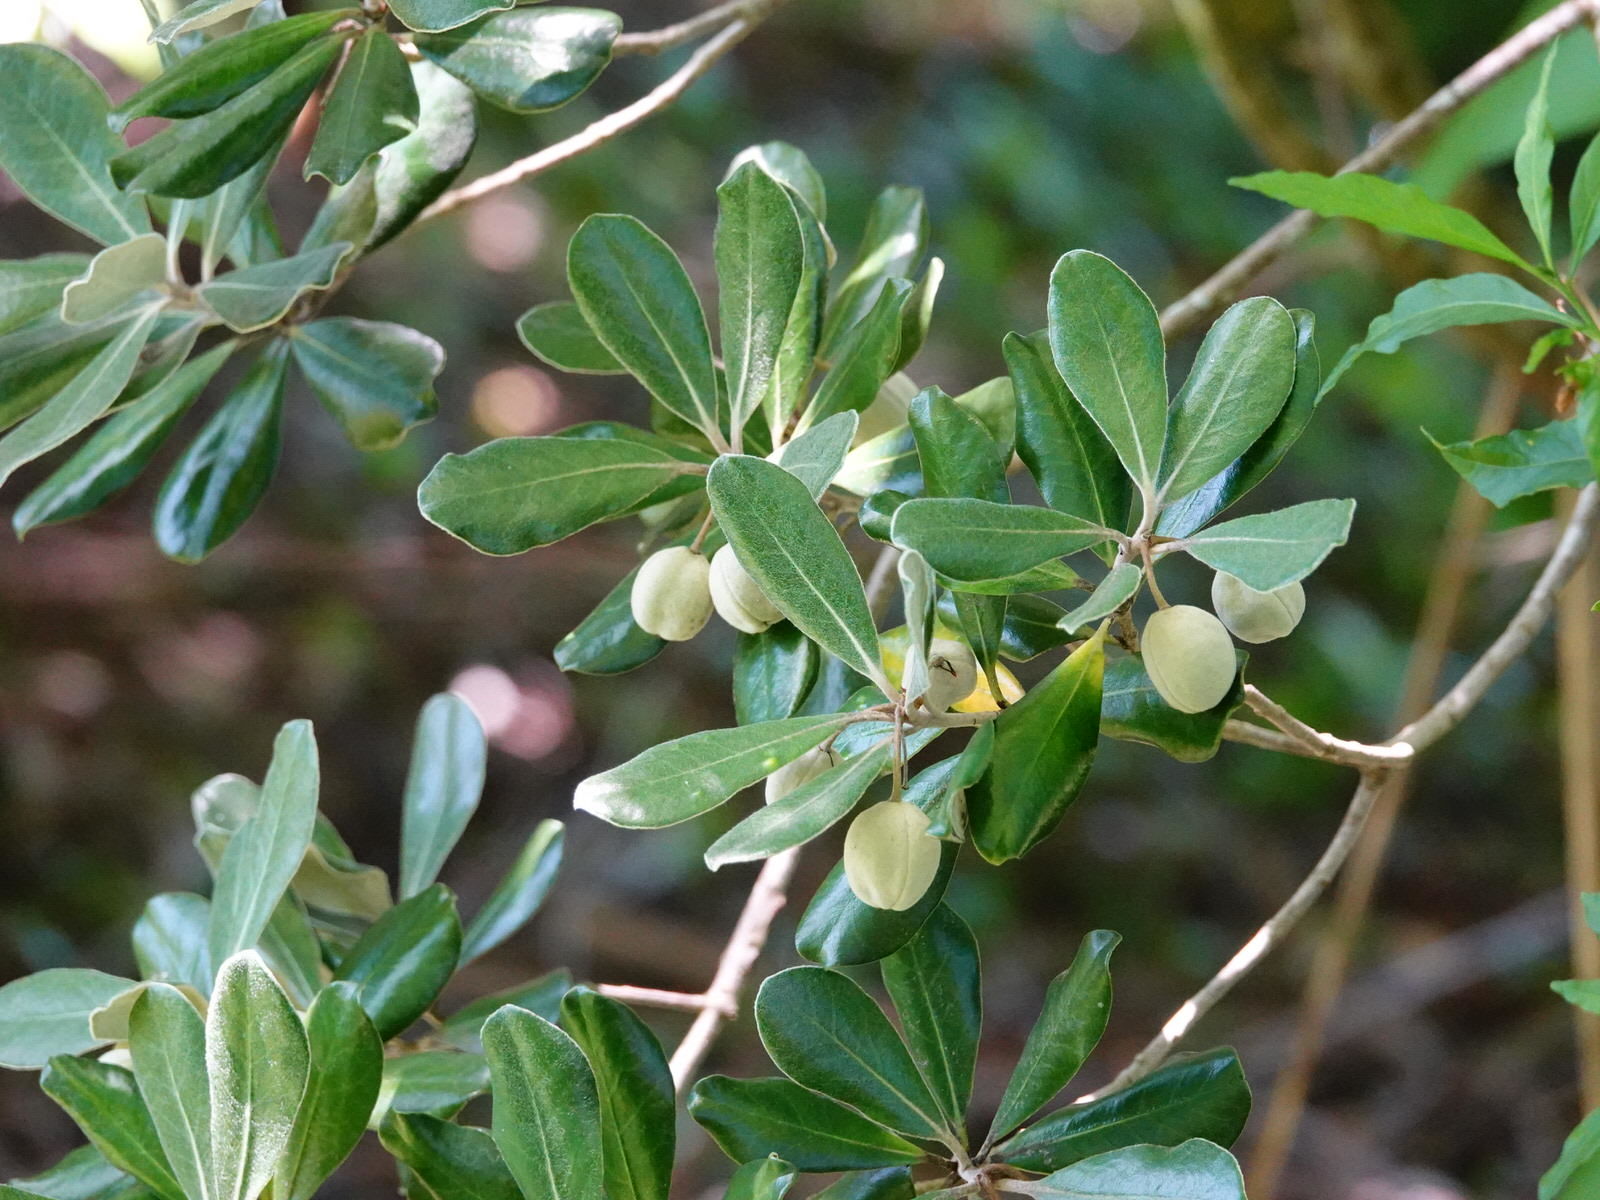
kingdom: Plantae
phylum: Tracheophyta
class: Magnoliopsida
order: Apiales
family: Pittosporaceae
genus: Pittosporum
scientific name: Pittosporum crassifolium
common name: Karo
